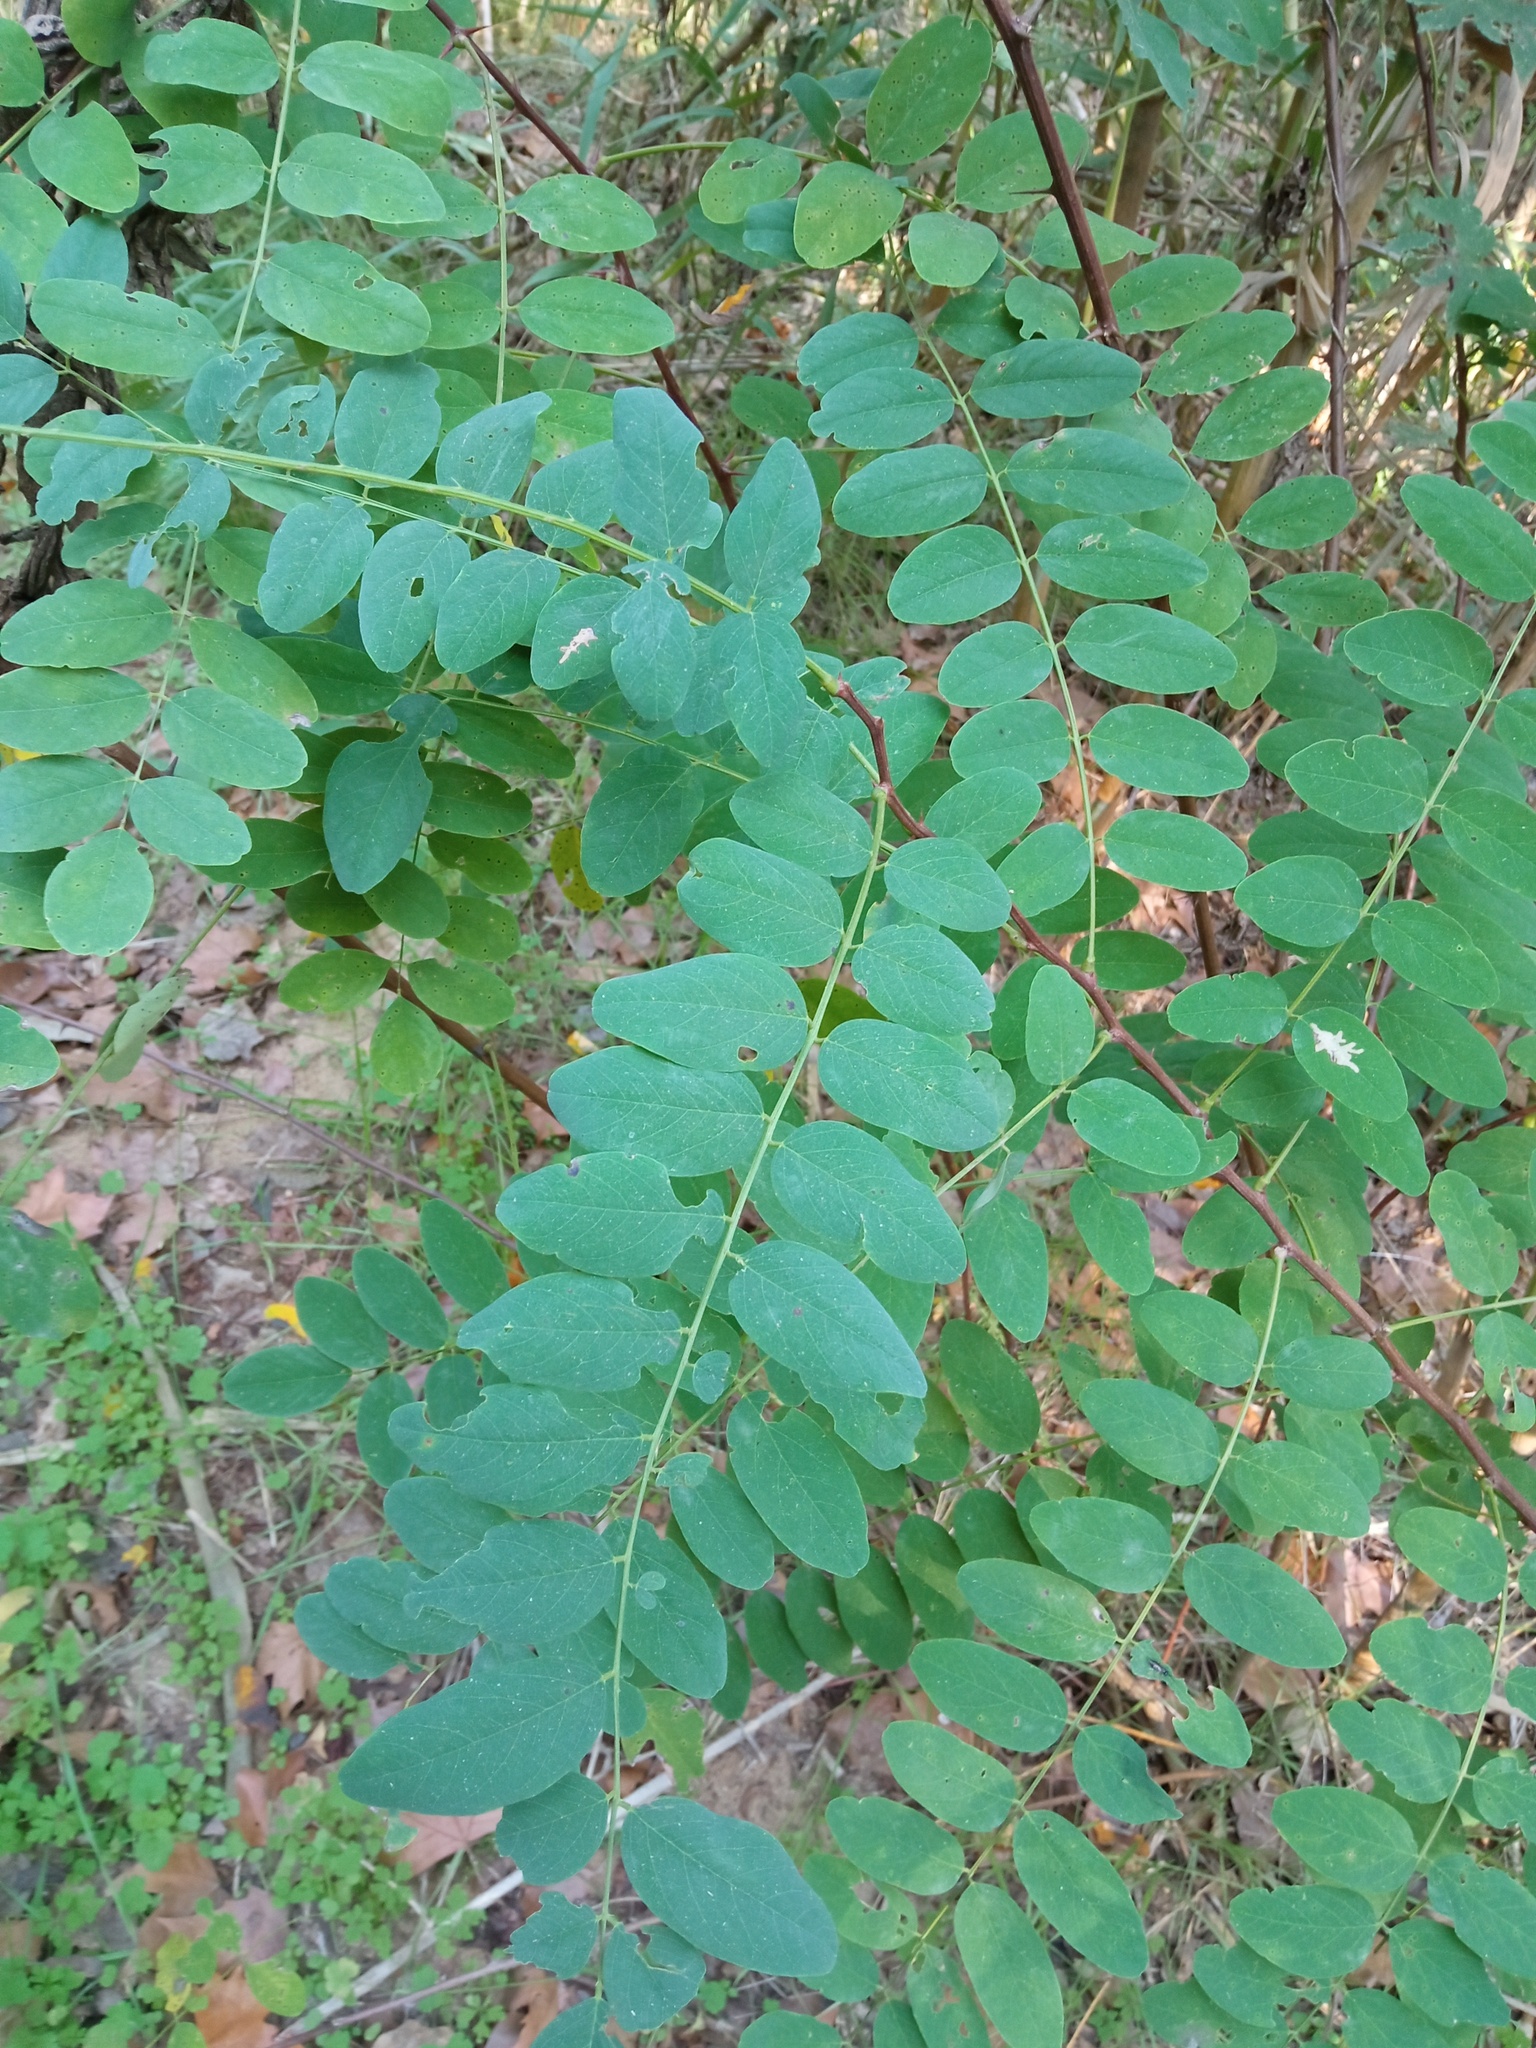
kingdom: Plantae
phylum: Tracheophyta
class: Magnoliopsida
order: Fabales
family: Fabaceae
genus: Robinia
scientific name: Robinia pseudoacacia
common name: Black locust
